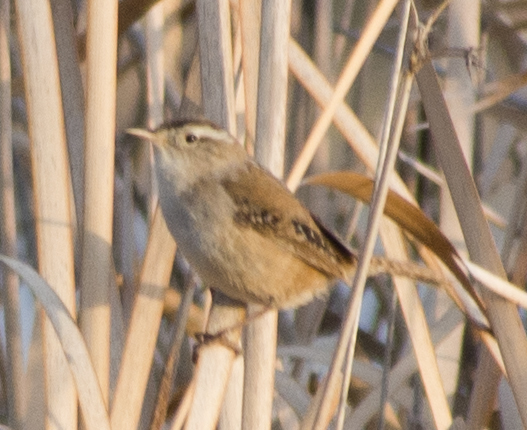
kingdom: Animalia
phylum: Chordata
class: Aves
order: Passeriformes
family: Troglodytidae
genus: Cistothorus
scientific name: Cistothorus palustris
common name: Marsh wren
